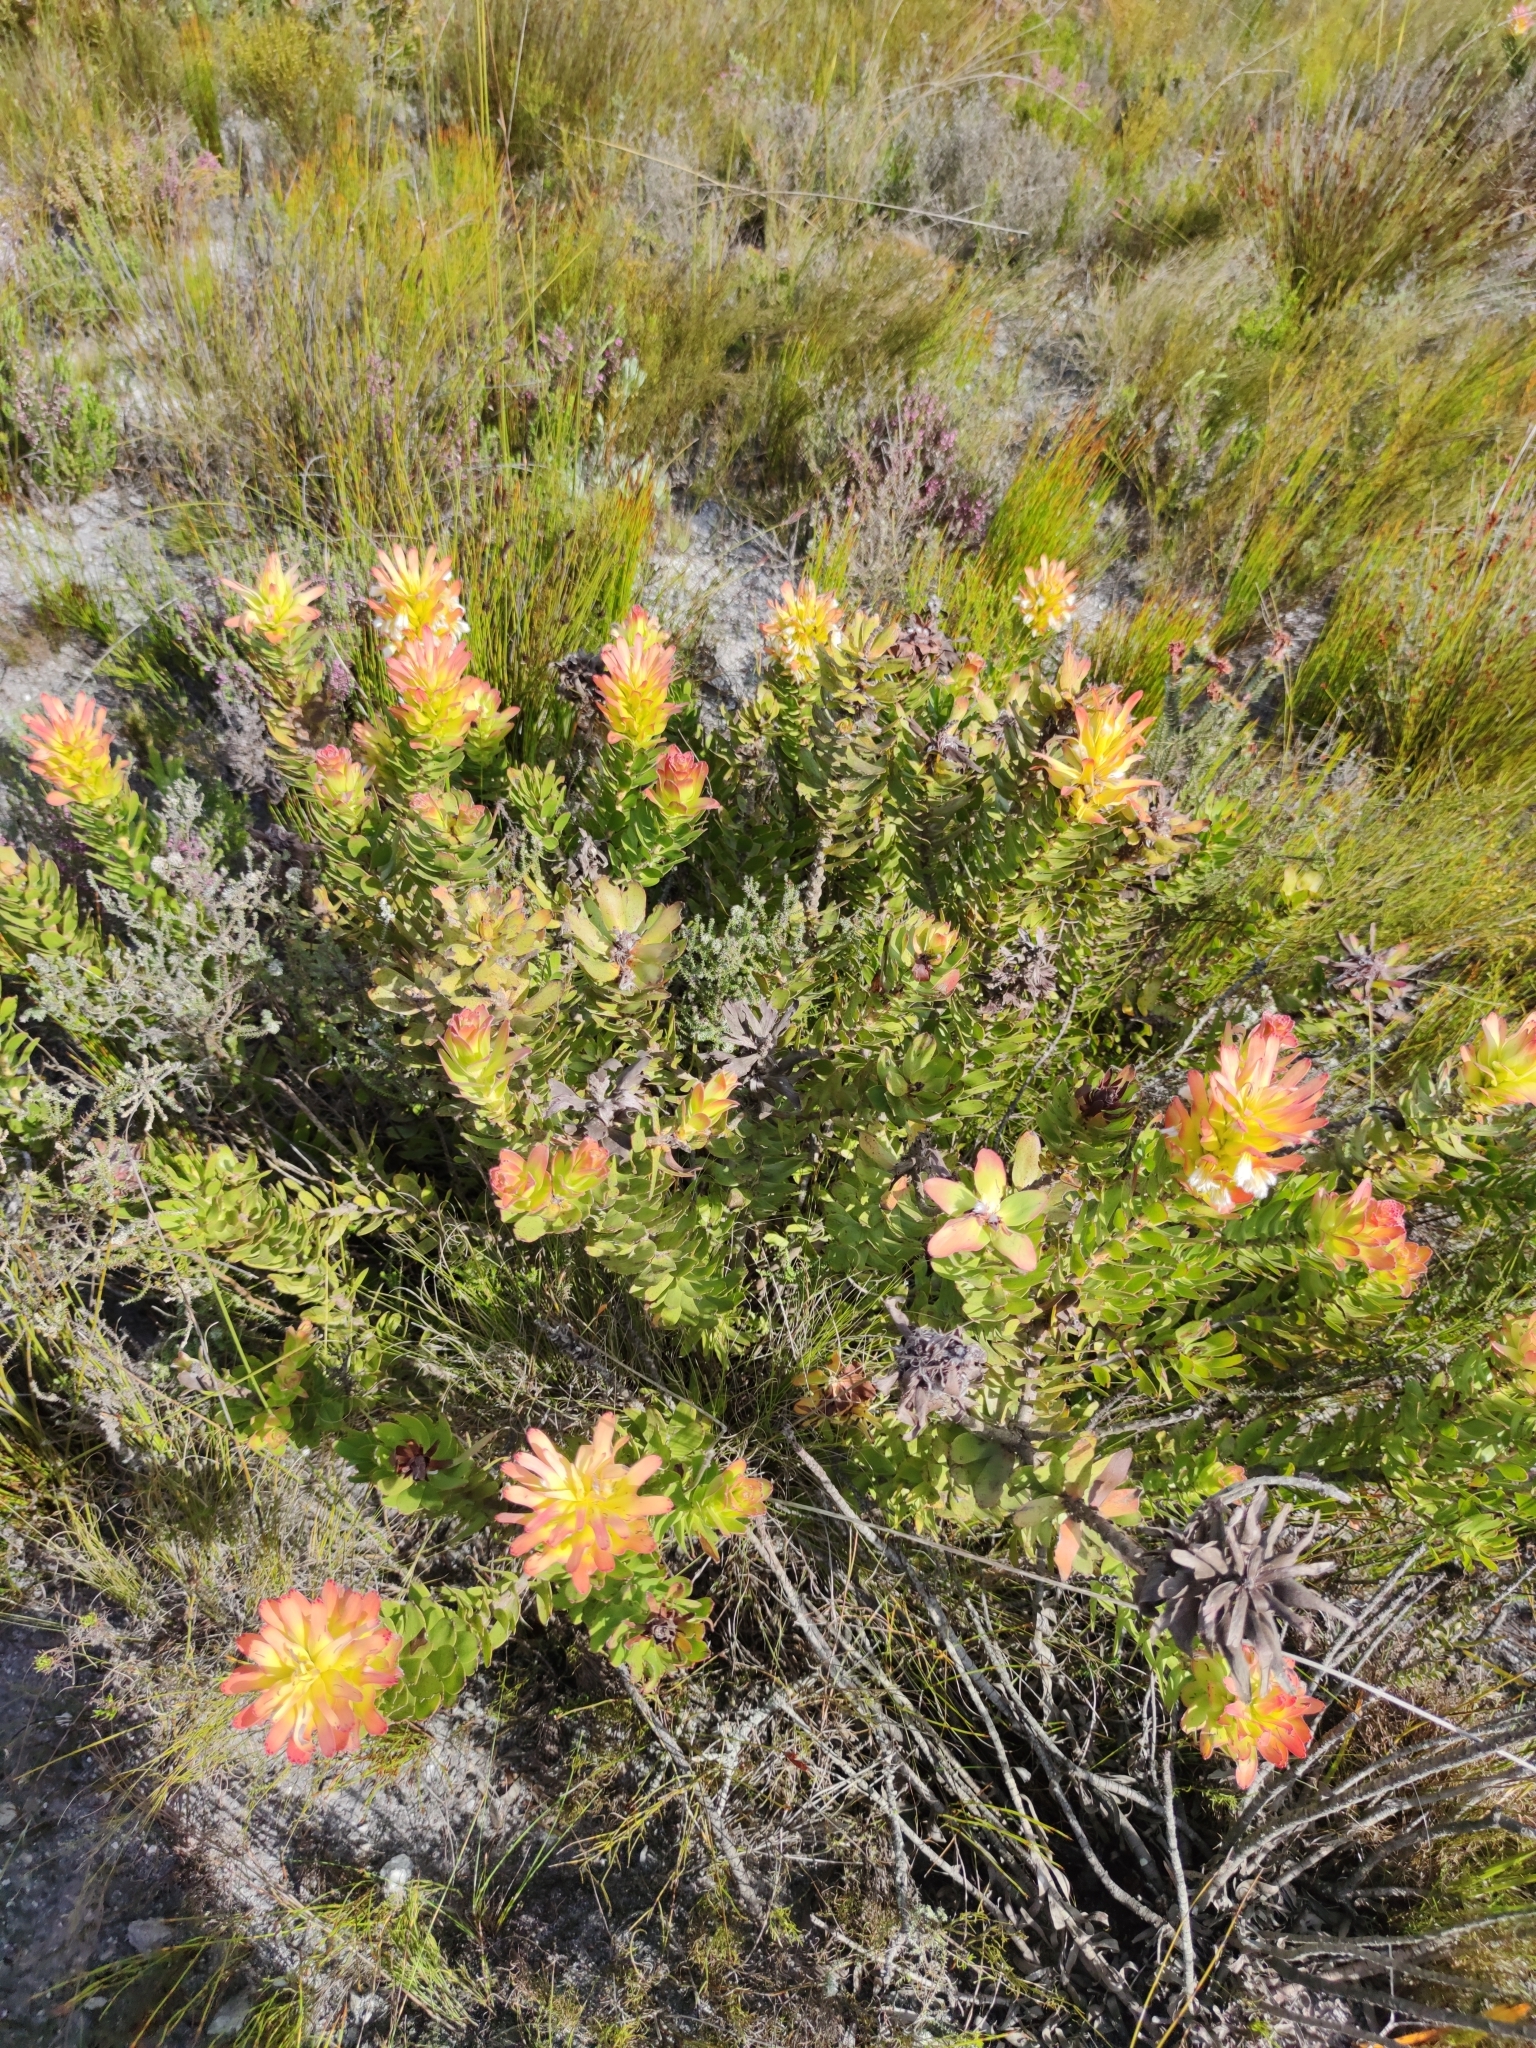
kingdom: Plantae
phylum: Tracheophyta
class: Magnoliopsida
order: Proteales
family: Proteaceae
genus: Mimetes
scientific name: Mimetes cucullatus
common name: Common pagoda
